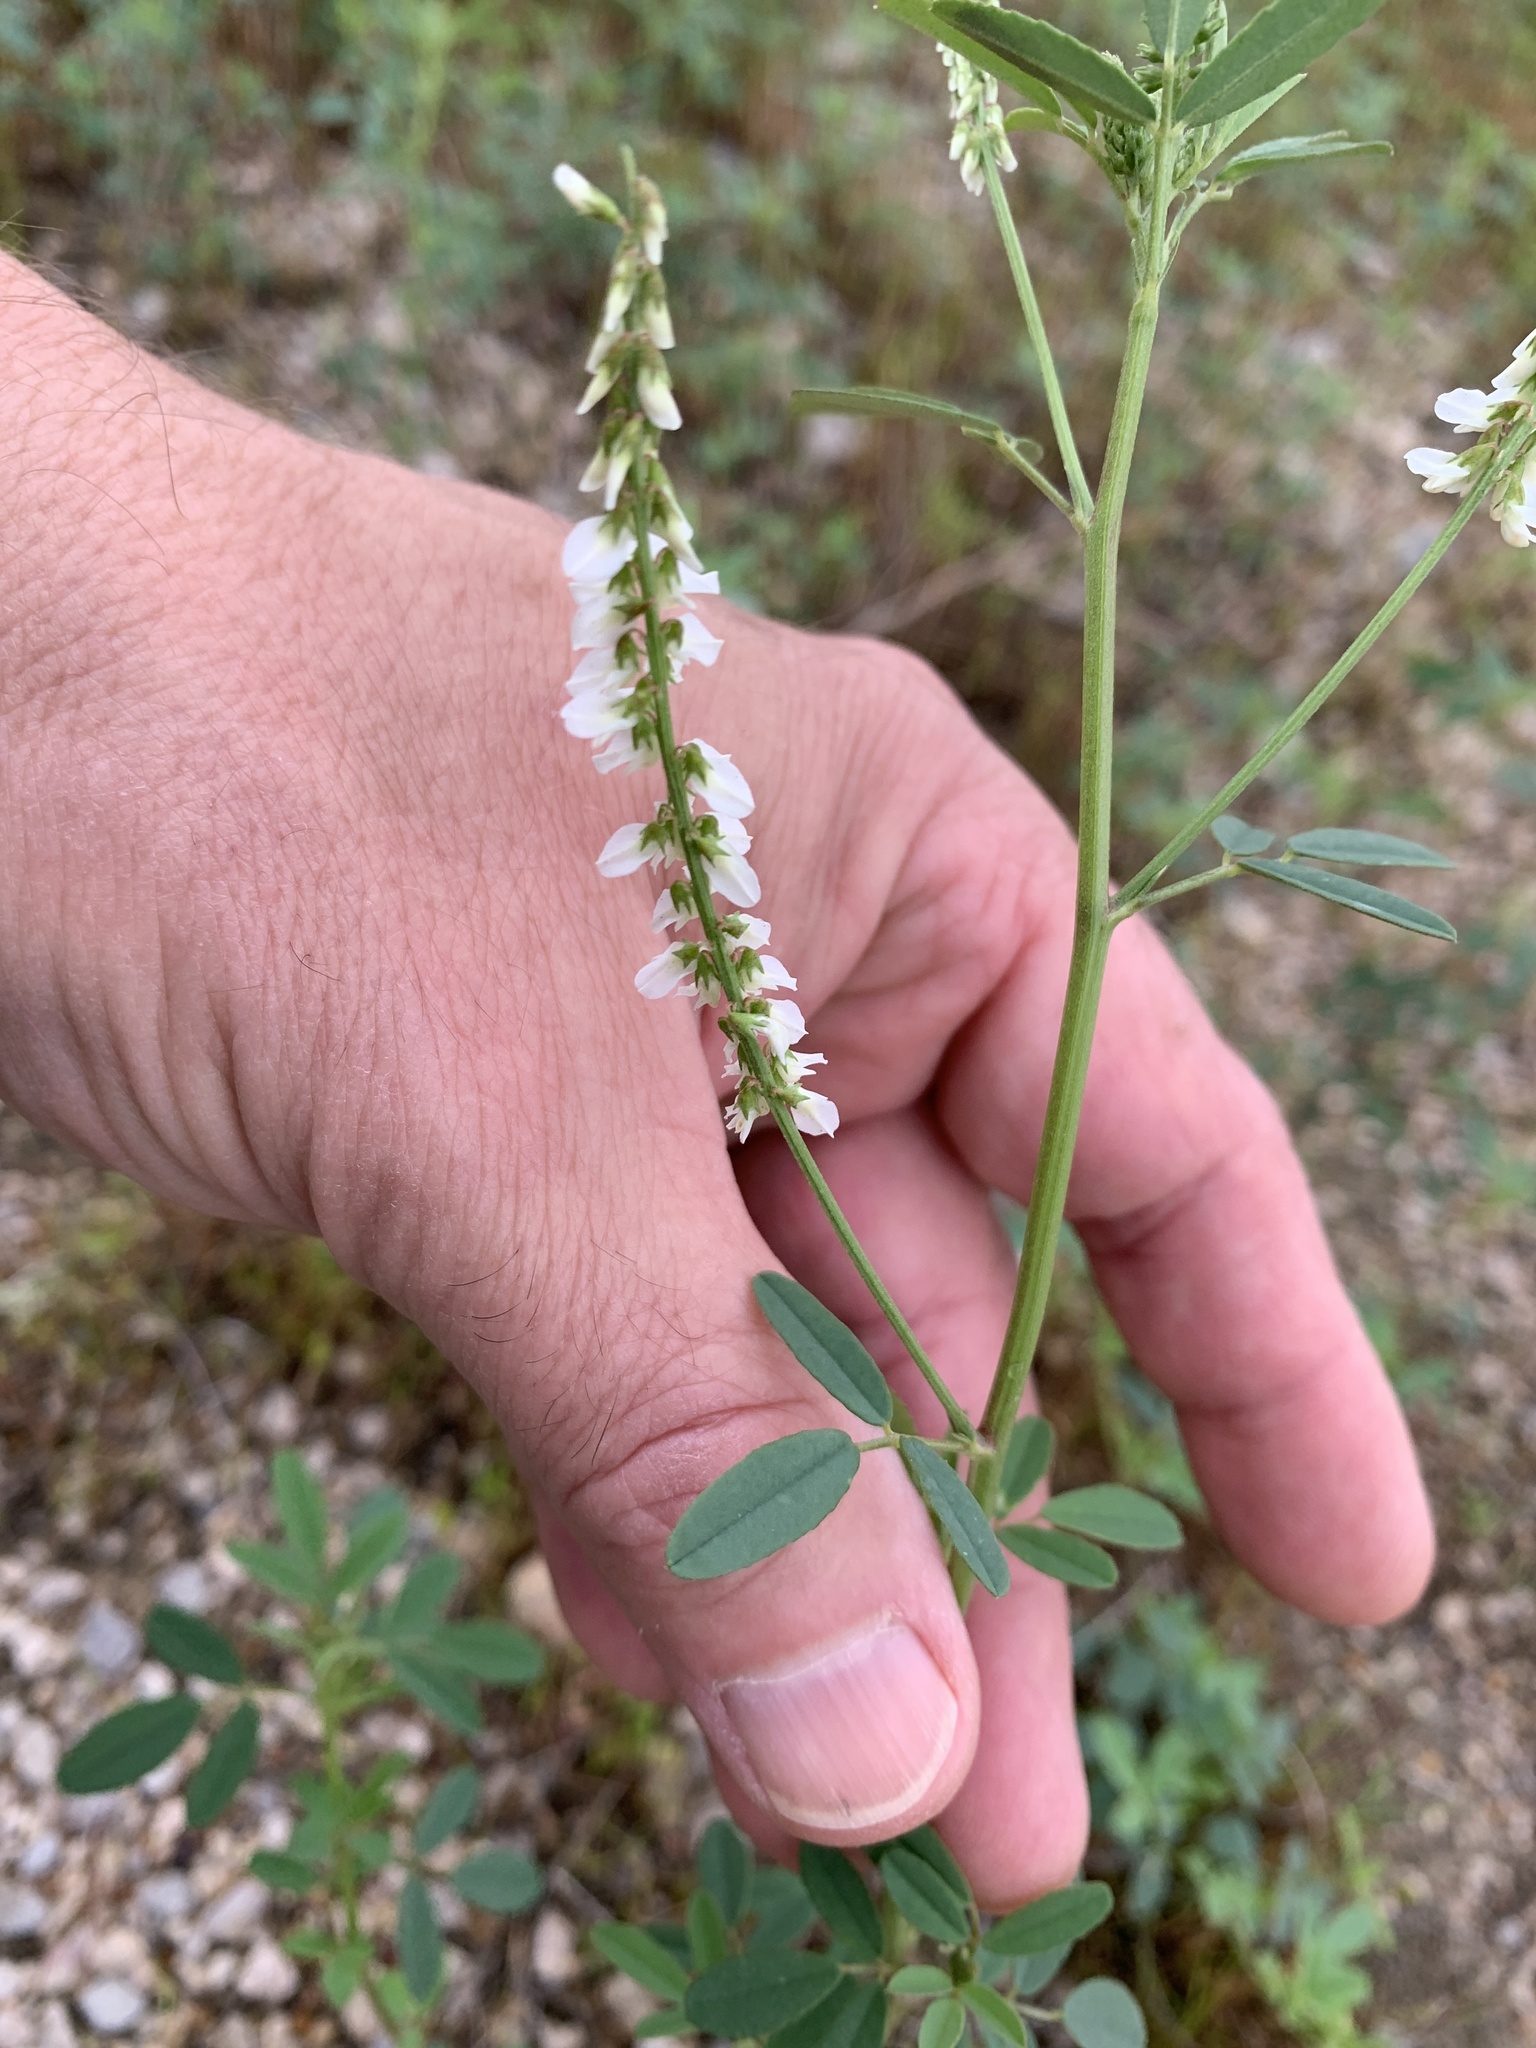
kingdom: Plantae
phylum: Tracheophyta
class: Magnoliopsida
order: Fabales
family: Fabaceae
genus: Melilotus
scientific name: Melilotus albus
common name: White melilot
